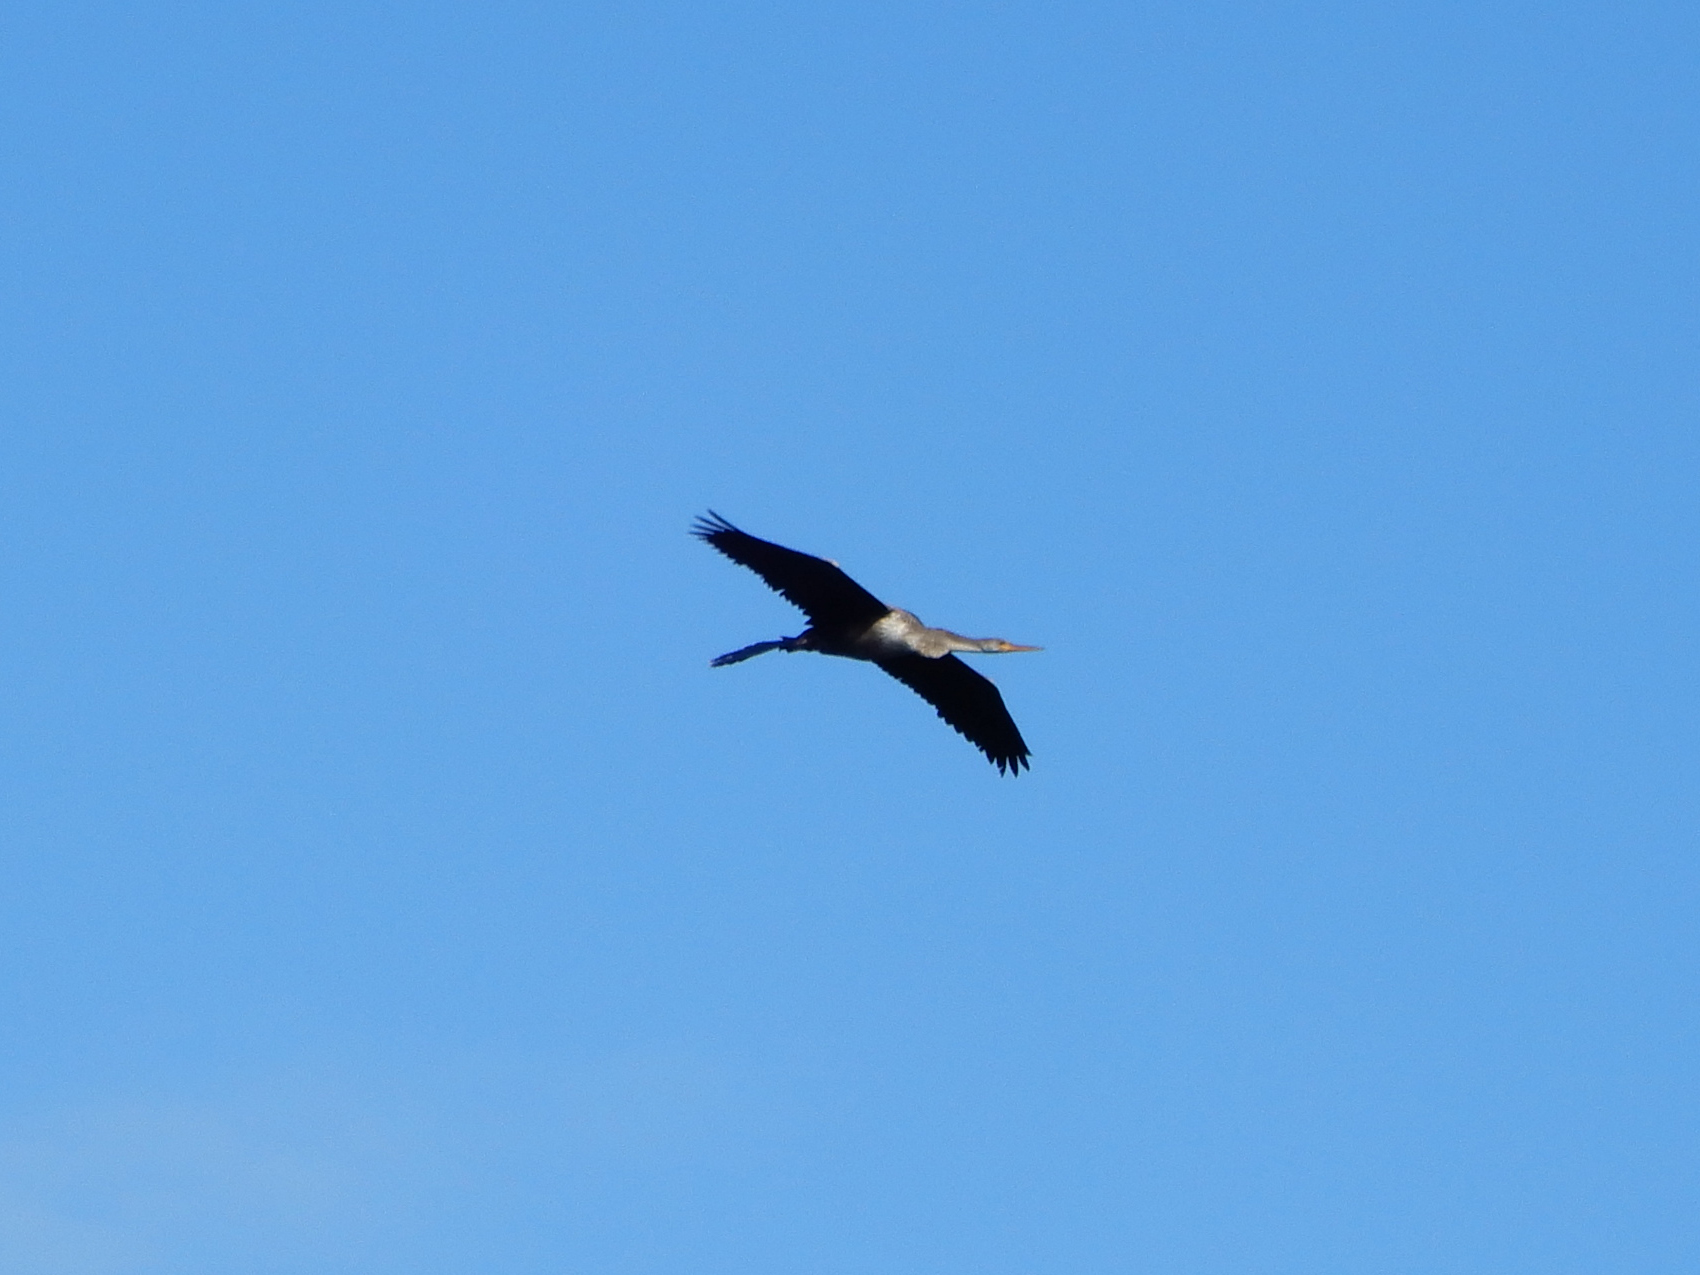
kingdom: Animalia
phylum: Chordata
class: Aves
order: Suliformes
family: Anhingidae
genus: Anhinga
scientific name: Anhinga anhinga
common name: Anhinga
